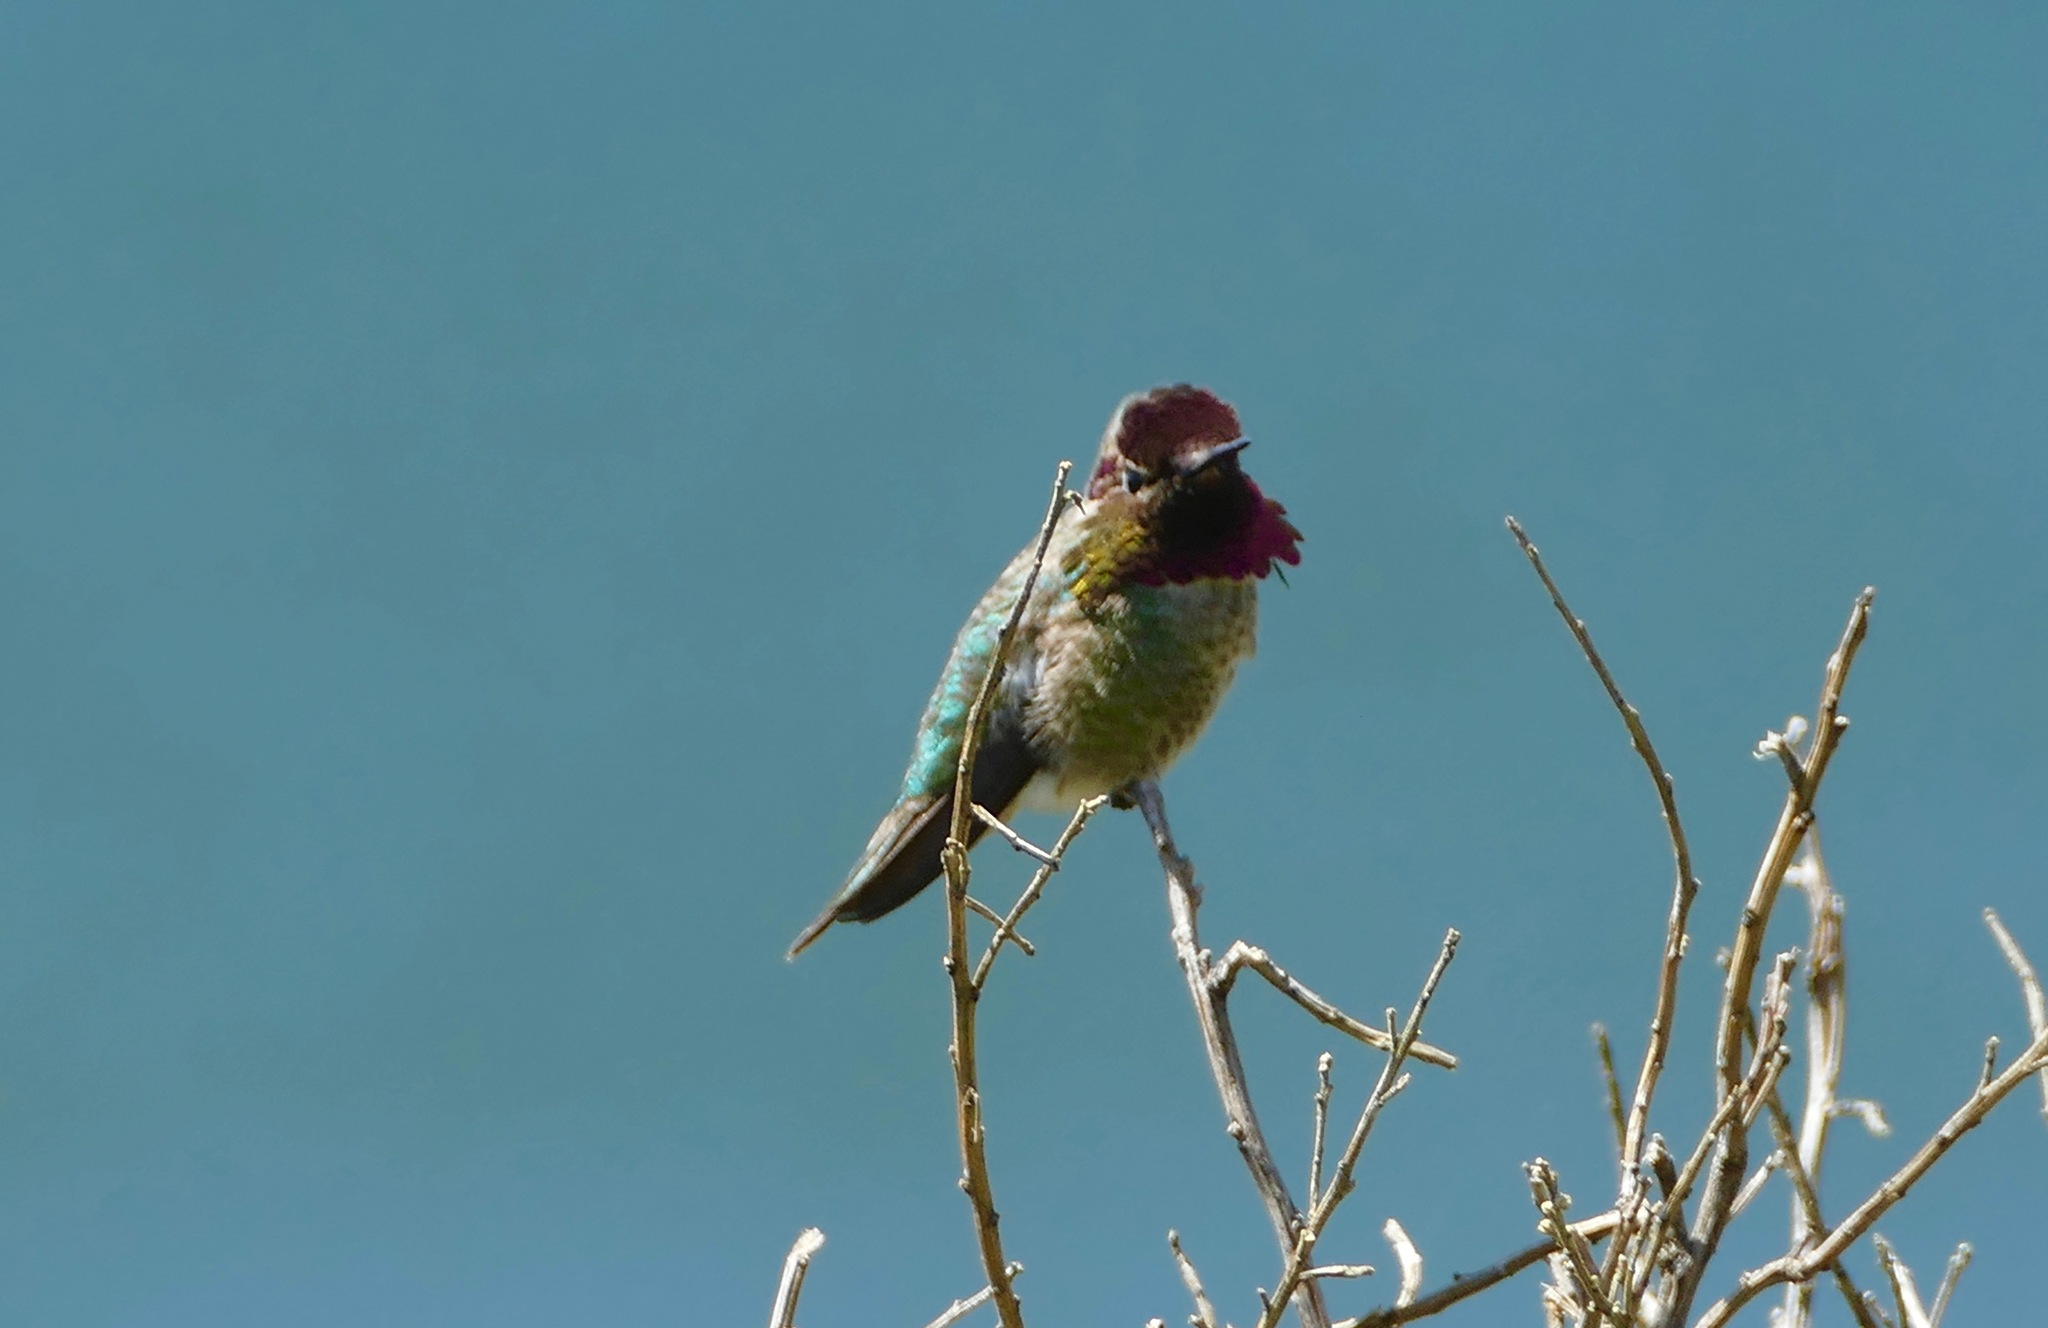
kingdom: Animalia
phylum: Chordata
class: Aves
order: Apodiformes
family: Trochilidae
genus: Calypte
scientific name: Calypte anna
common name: Anna's hummingbird
